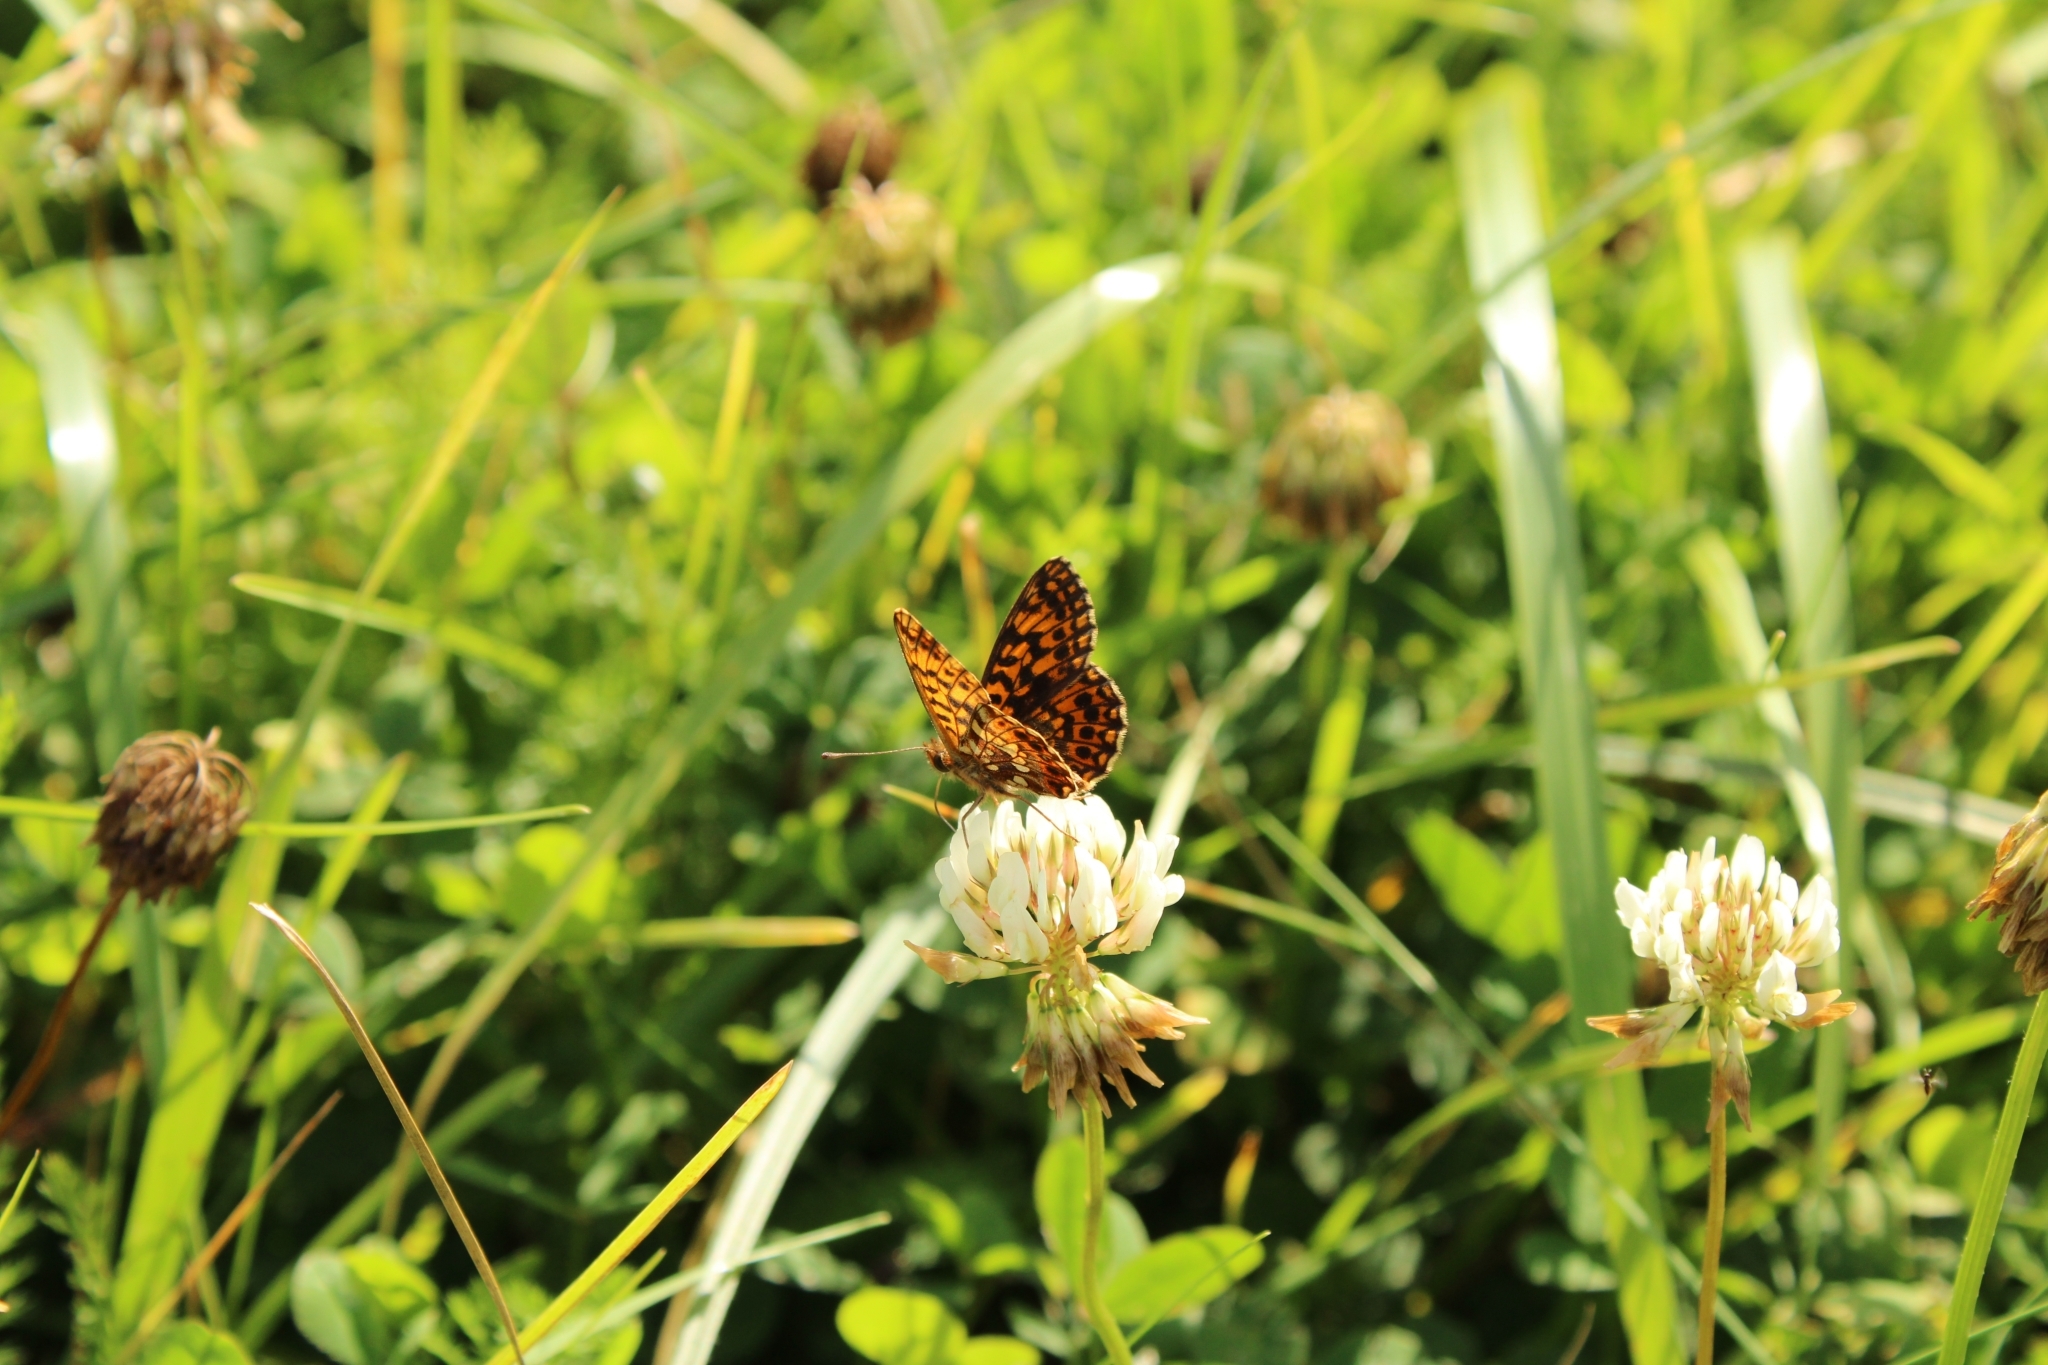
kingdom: Animalia
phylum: Arthropoda
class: Insecta
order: Lepidoptera
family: Nymphalidae
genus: Boloria
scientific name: Boloria dia
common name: Weaver's fritillary
